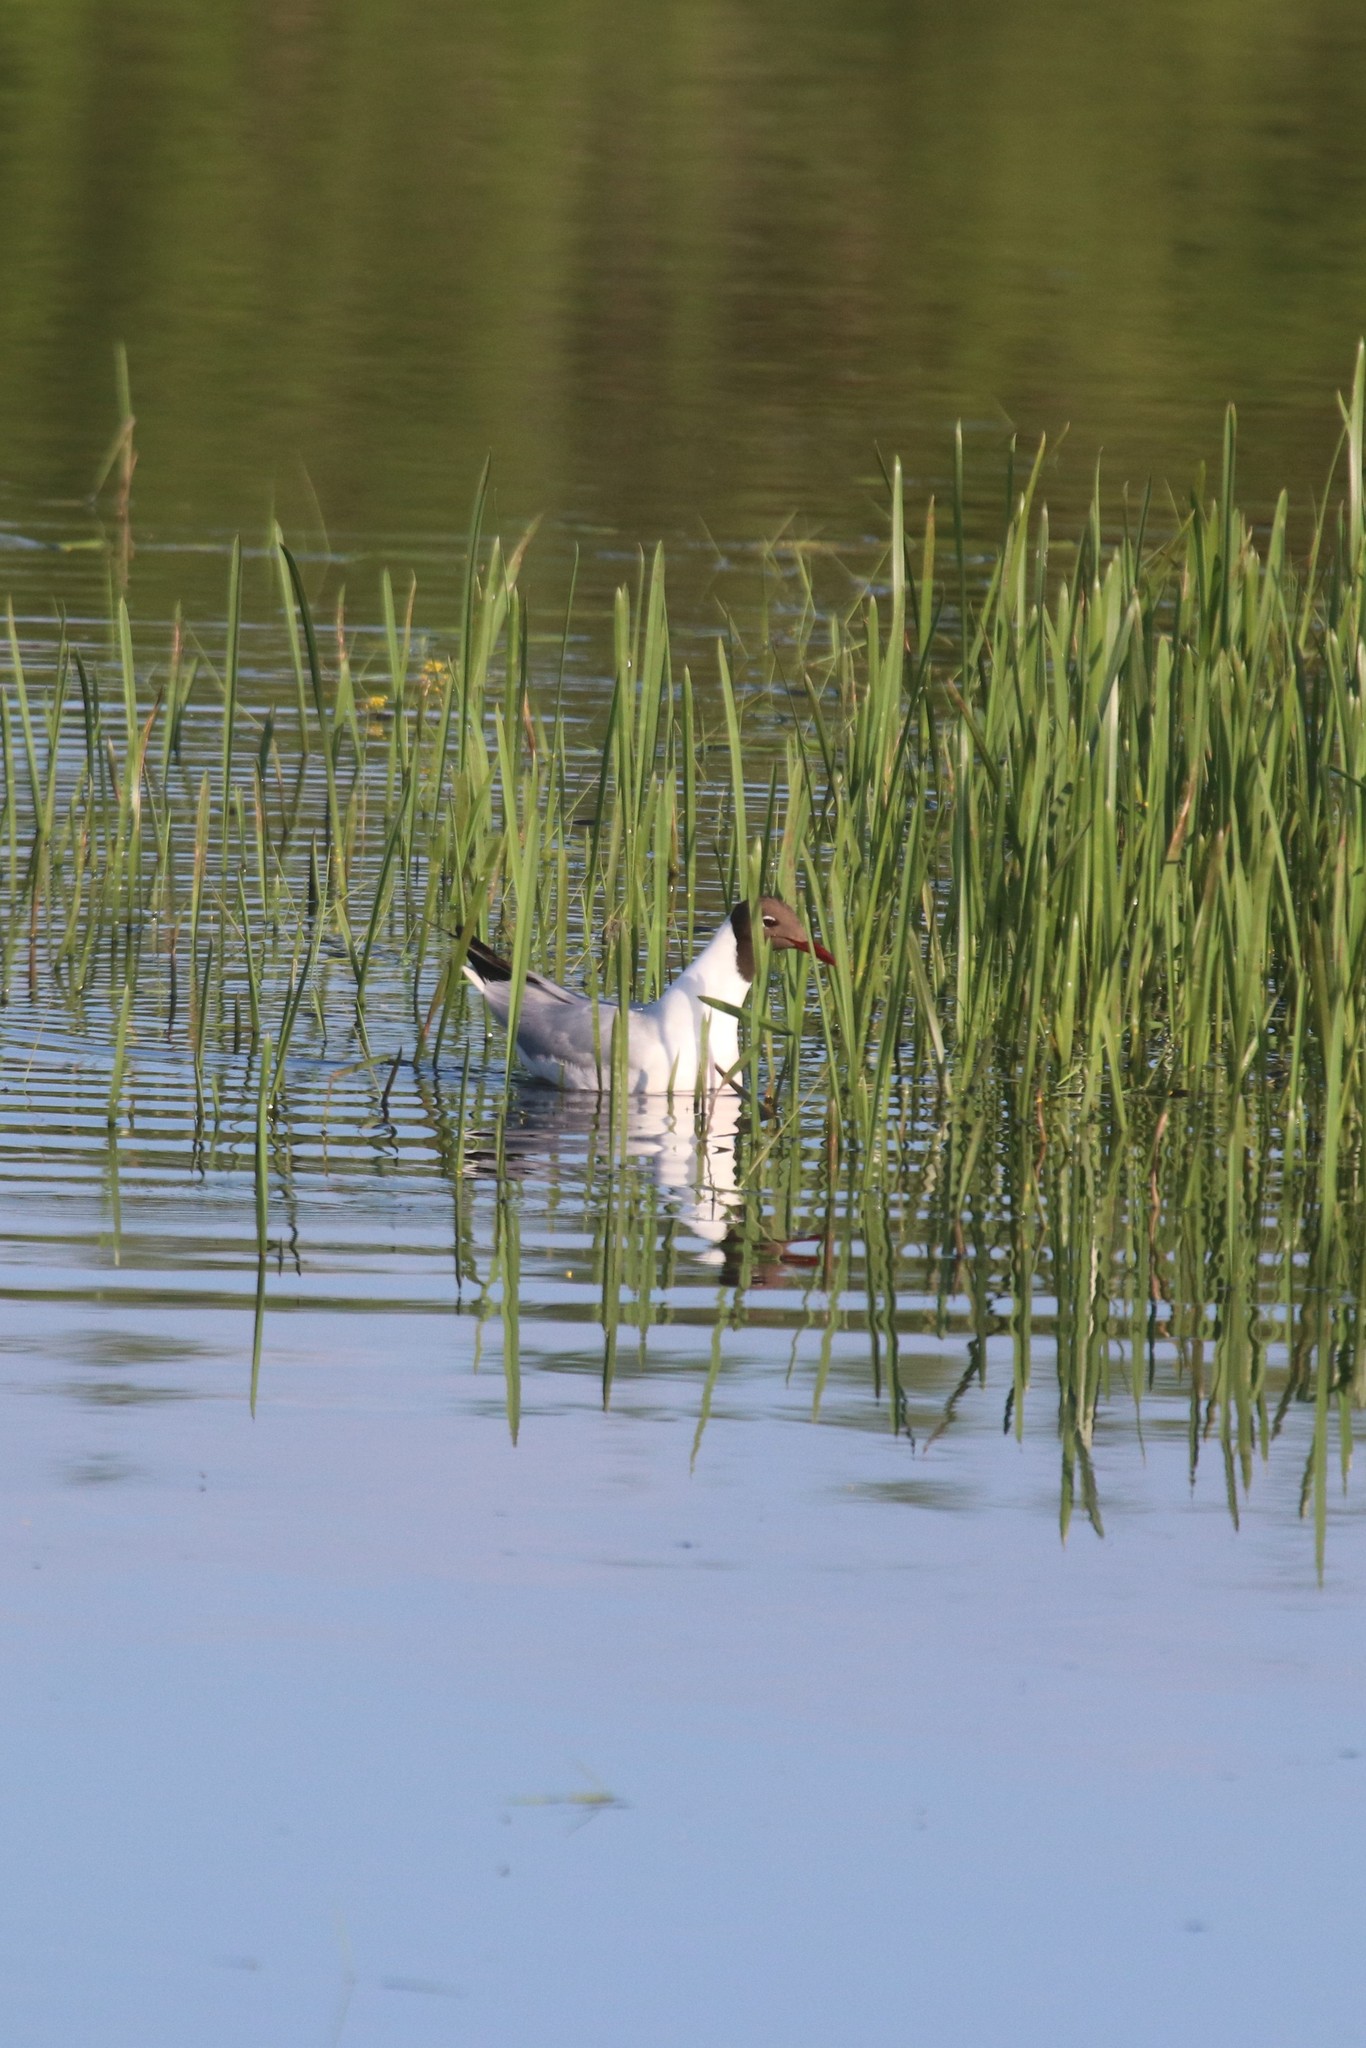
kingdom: Animalia
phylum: Chordata
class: Aves
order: Charadriiformes
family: Laridae
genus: Chroicocephalus
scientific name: Chroicocephalus ridibundus
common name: Black-headed gull
